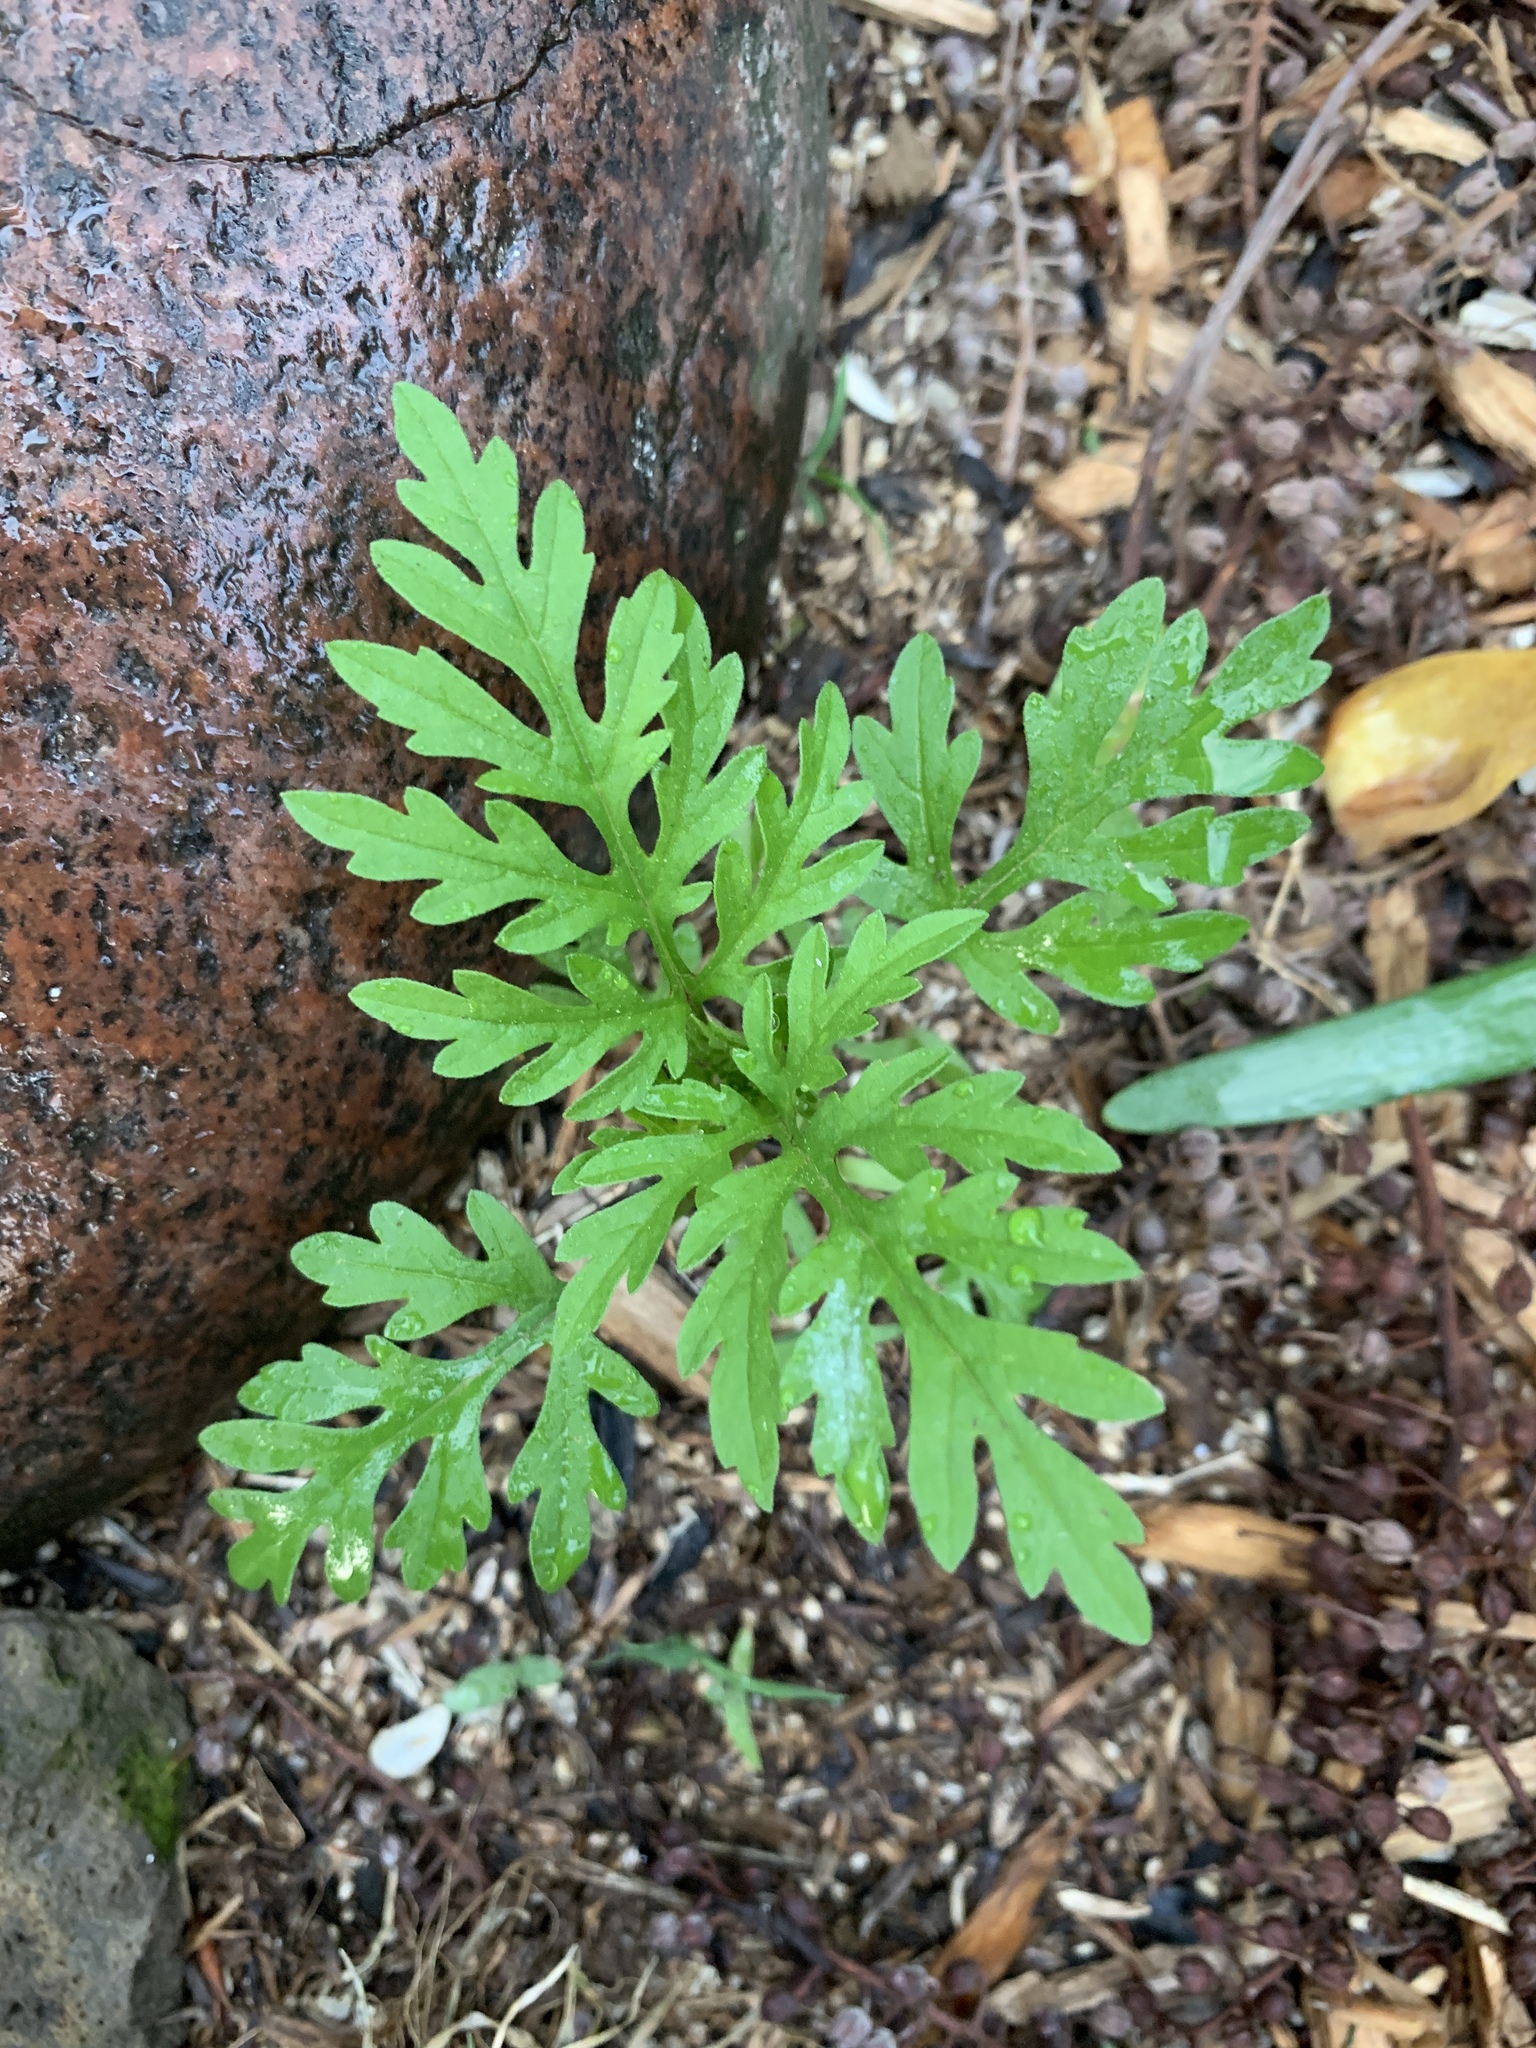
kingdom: Plantae
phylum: Tracheophyta
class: Magnoliopsida
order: Asterales
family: Asteraceae
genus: Ambrosia
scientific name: Ambrosia artemisiifolia
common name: Annual ragweed
